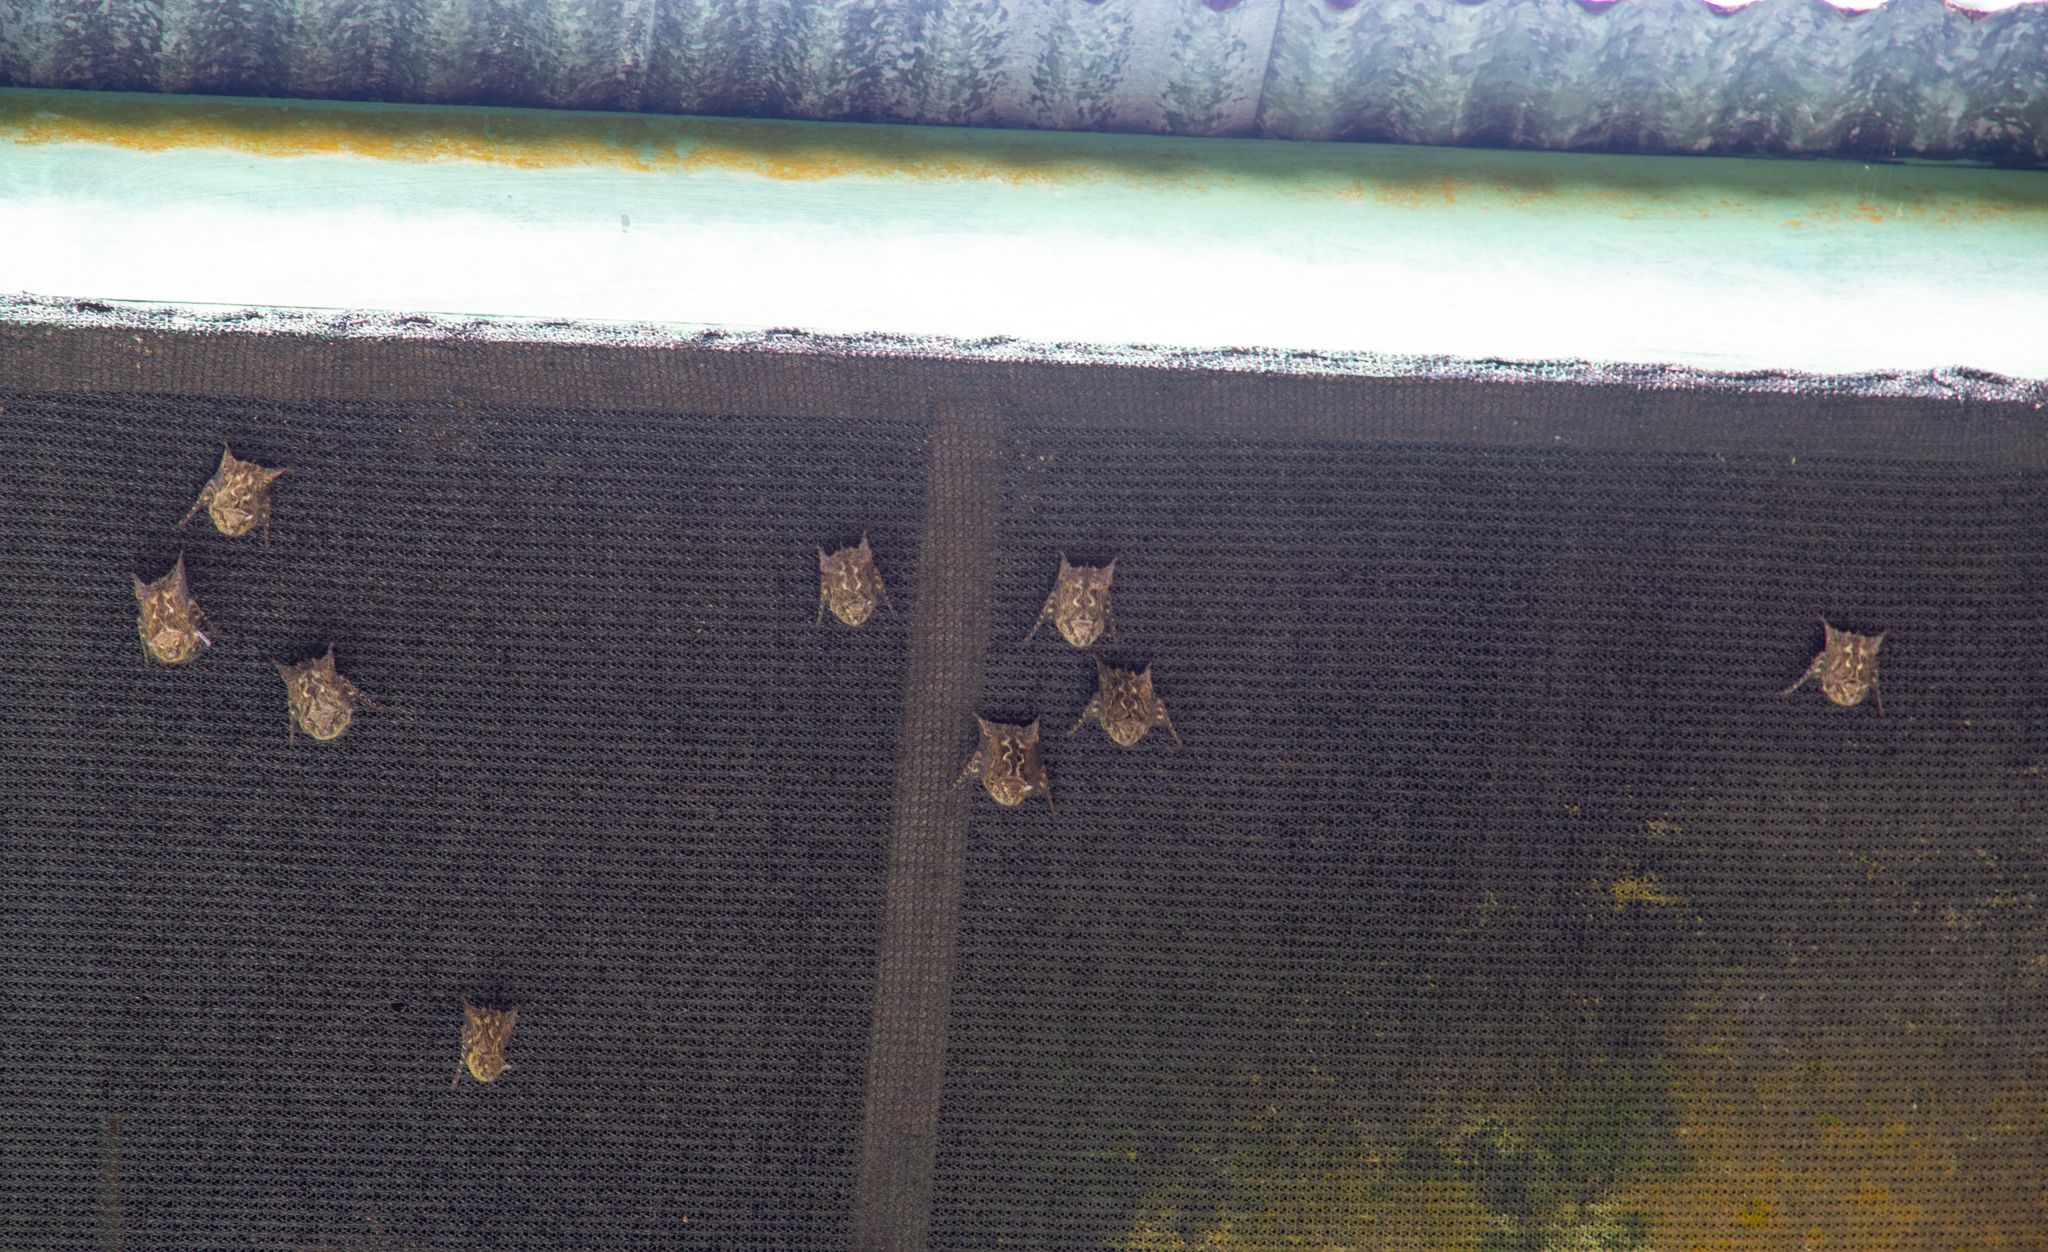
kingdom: Animalia
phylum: Chordata
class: Mammalia
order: Chiroptera
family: Emballonuridae
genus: Rhynchonycteris
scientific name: Rhynchonycteris naso
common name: Proboscis bat
